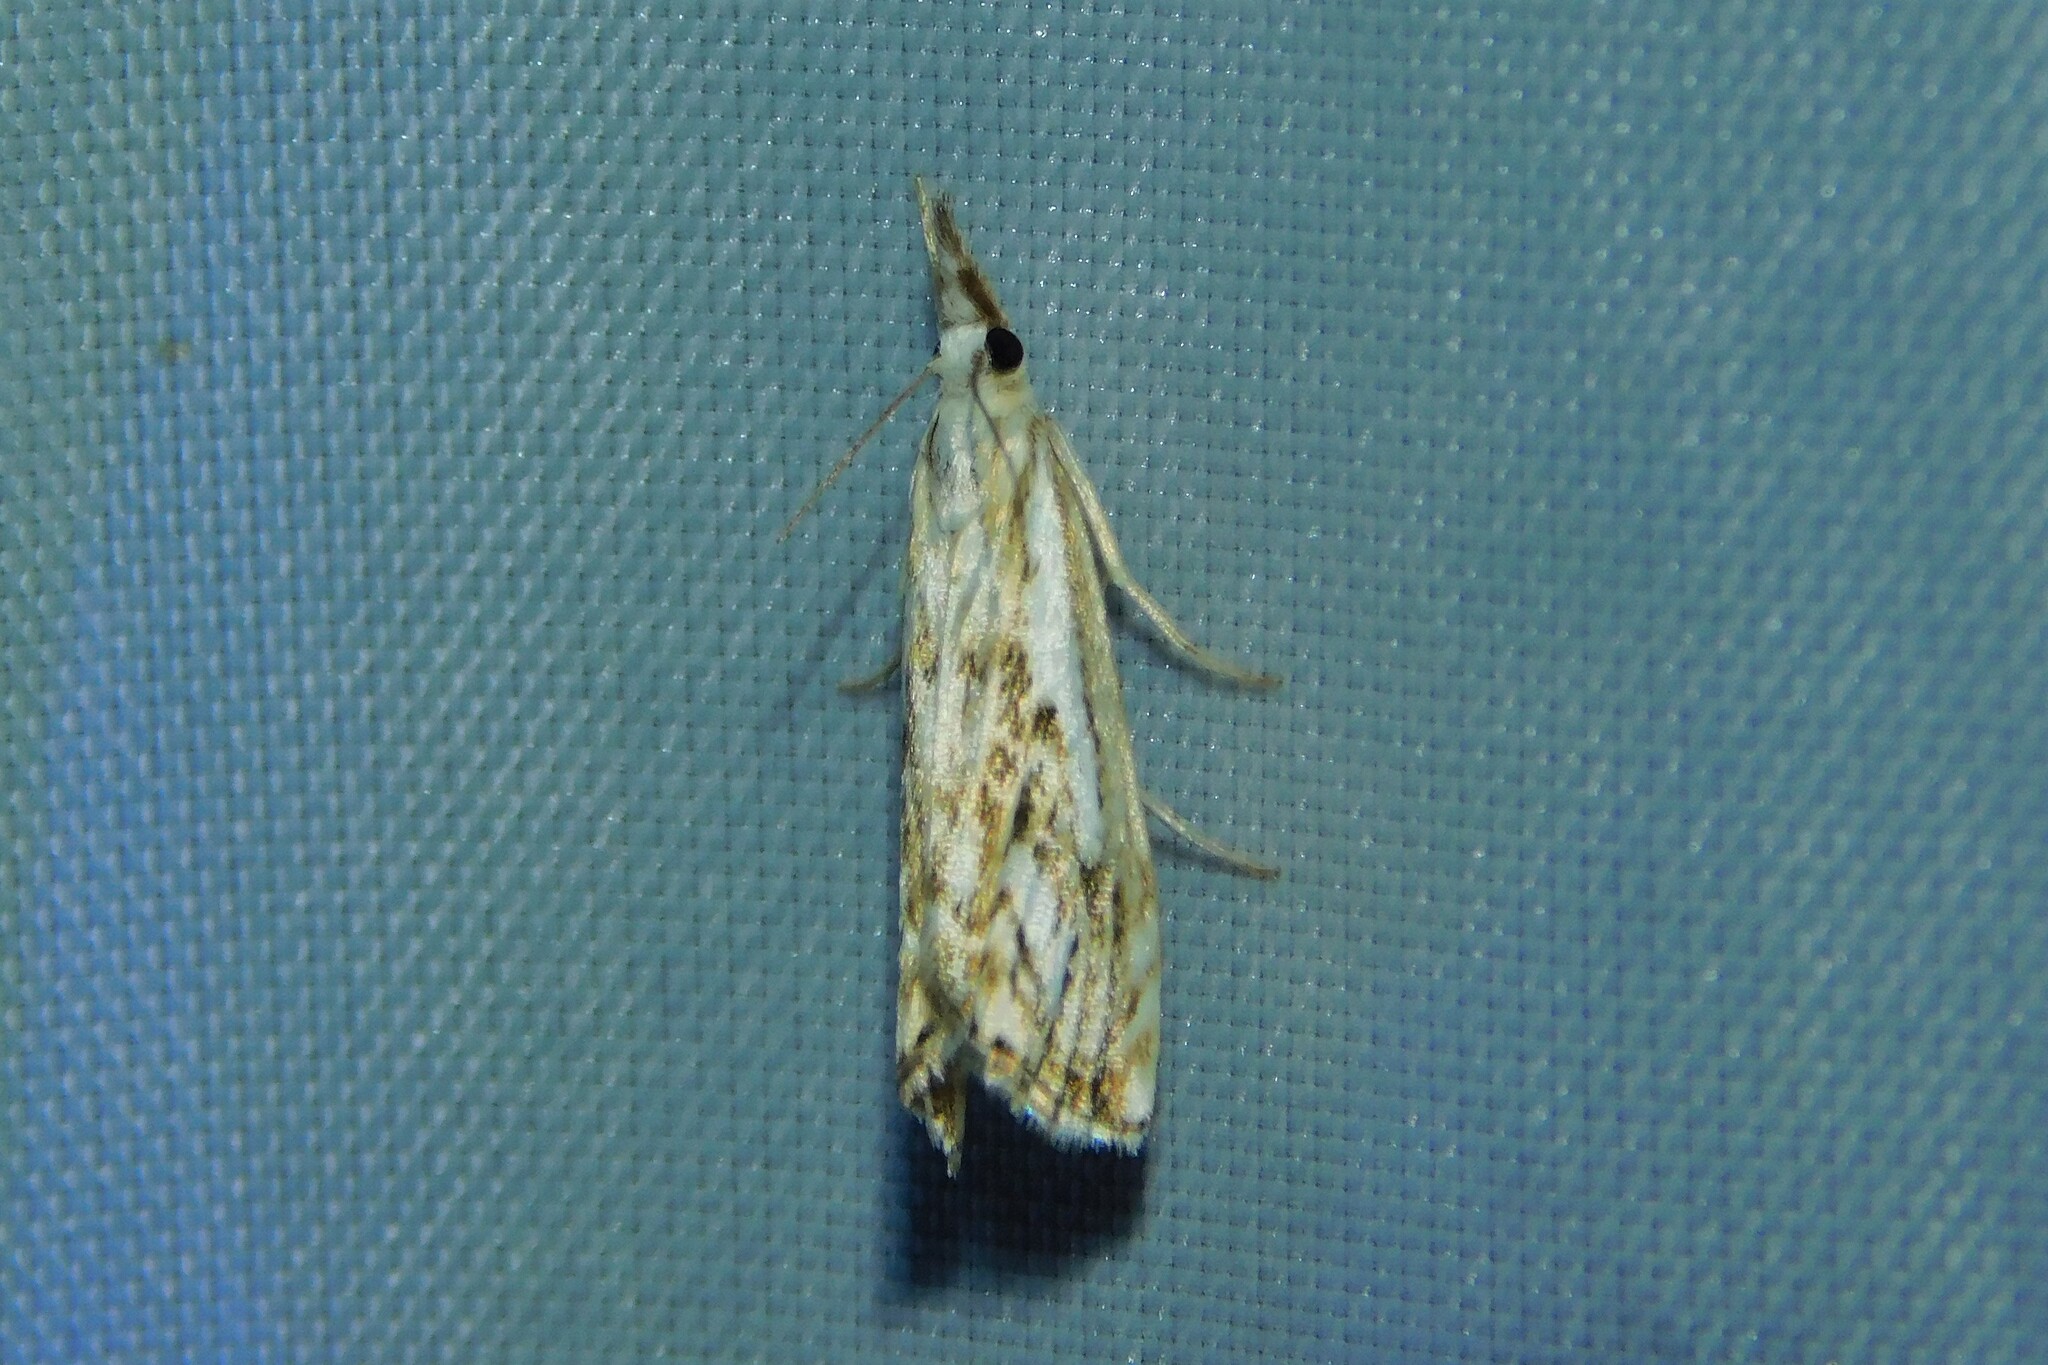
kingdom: Animalia
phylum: Arthropoda
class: Insecta
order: Lepidoptera
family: Crambidae
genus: Catoptria
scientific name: Catoptria falsella
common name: Chequered grass-veneer
